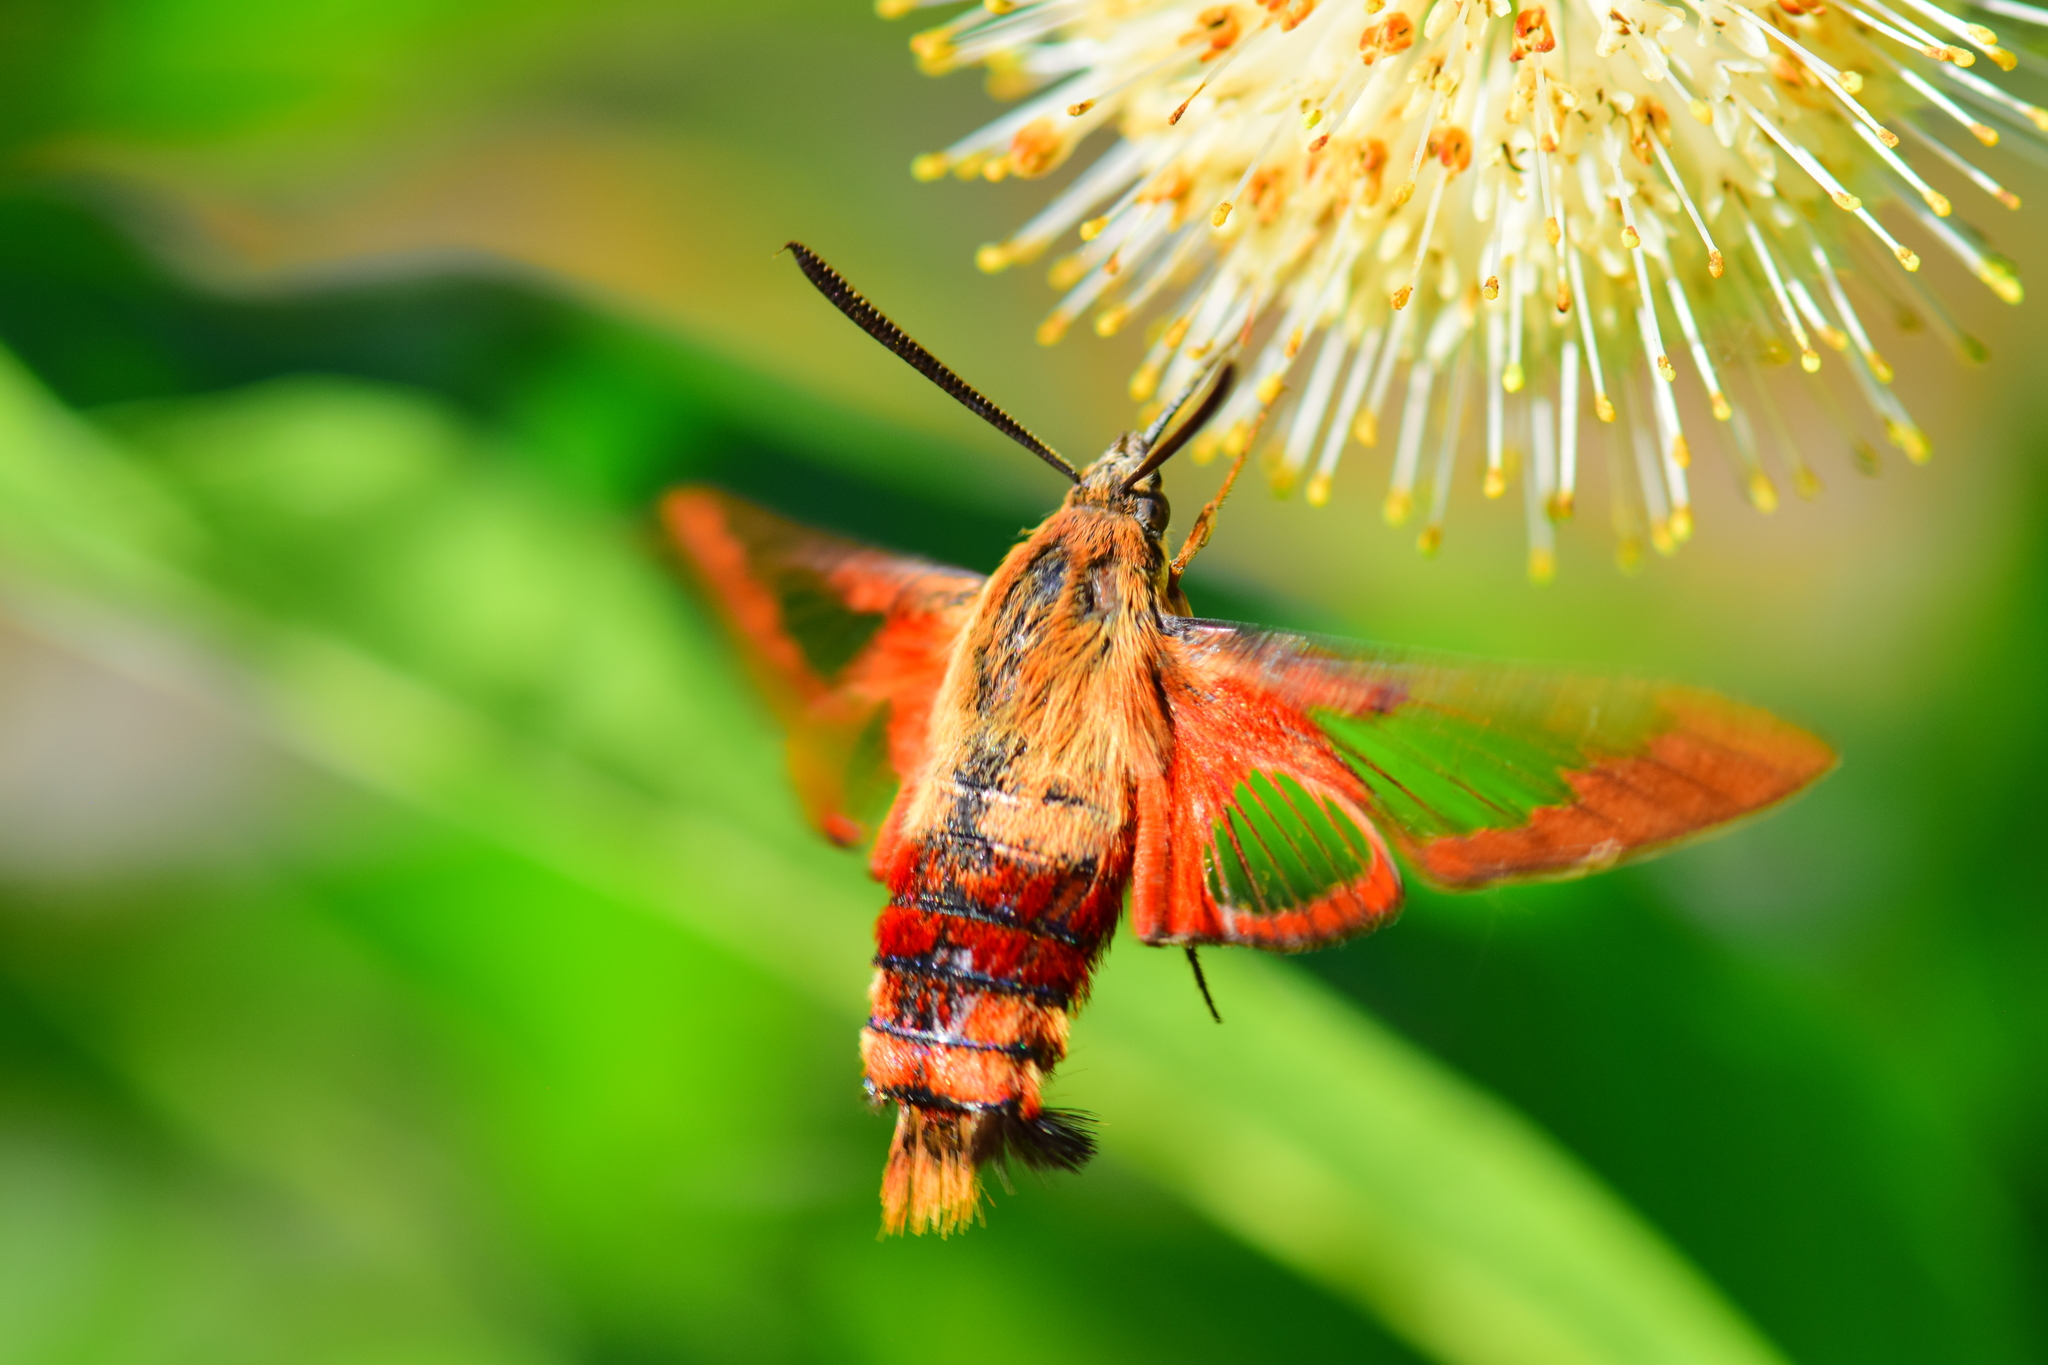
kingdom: Animalia
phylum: Arthropoda
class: Insecta
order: Lepidoptera
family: Sphingidae
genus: Hemaris
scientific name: Hemaris thysbe
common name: Common clear-wing
